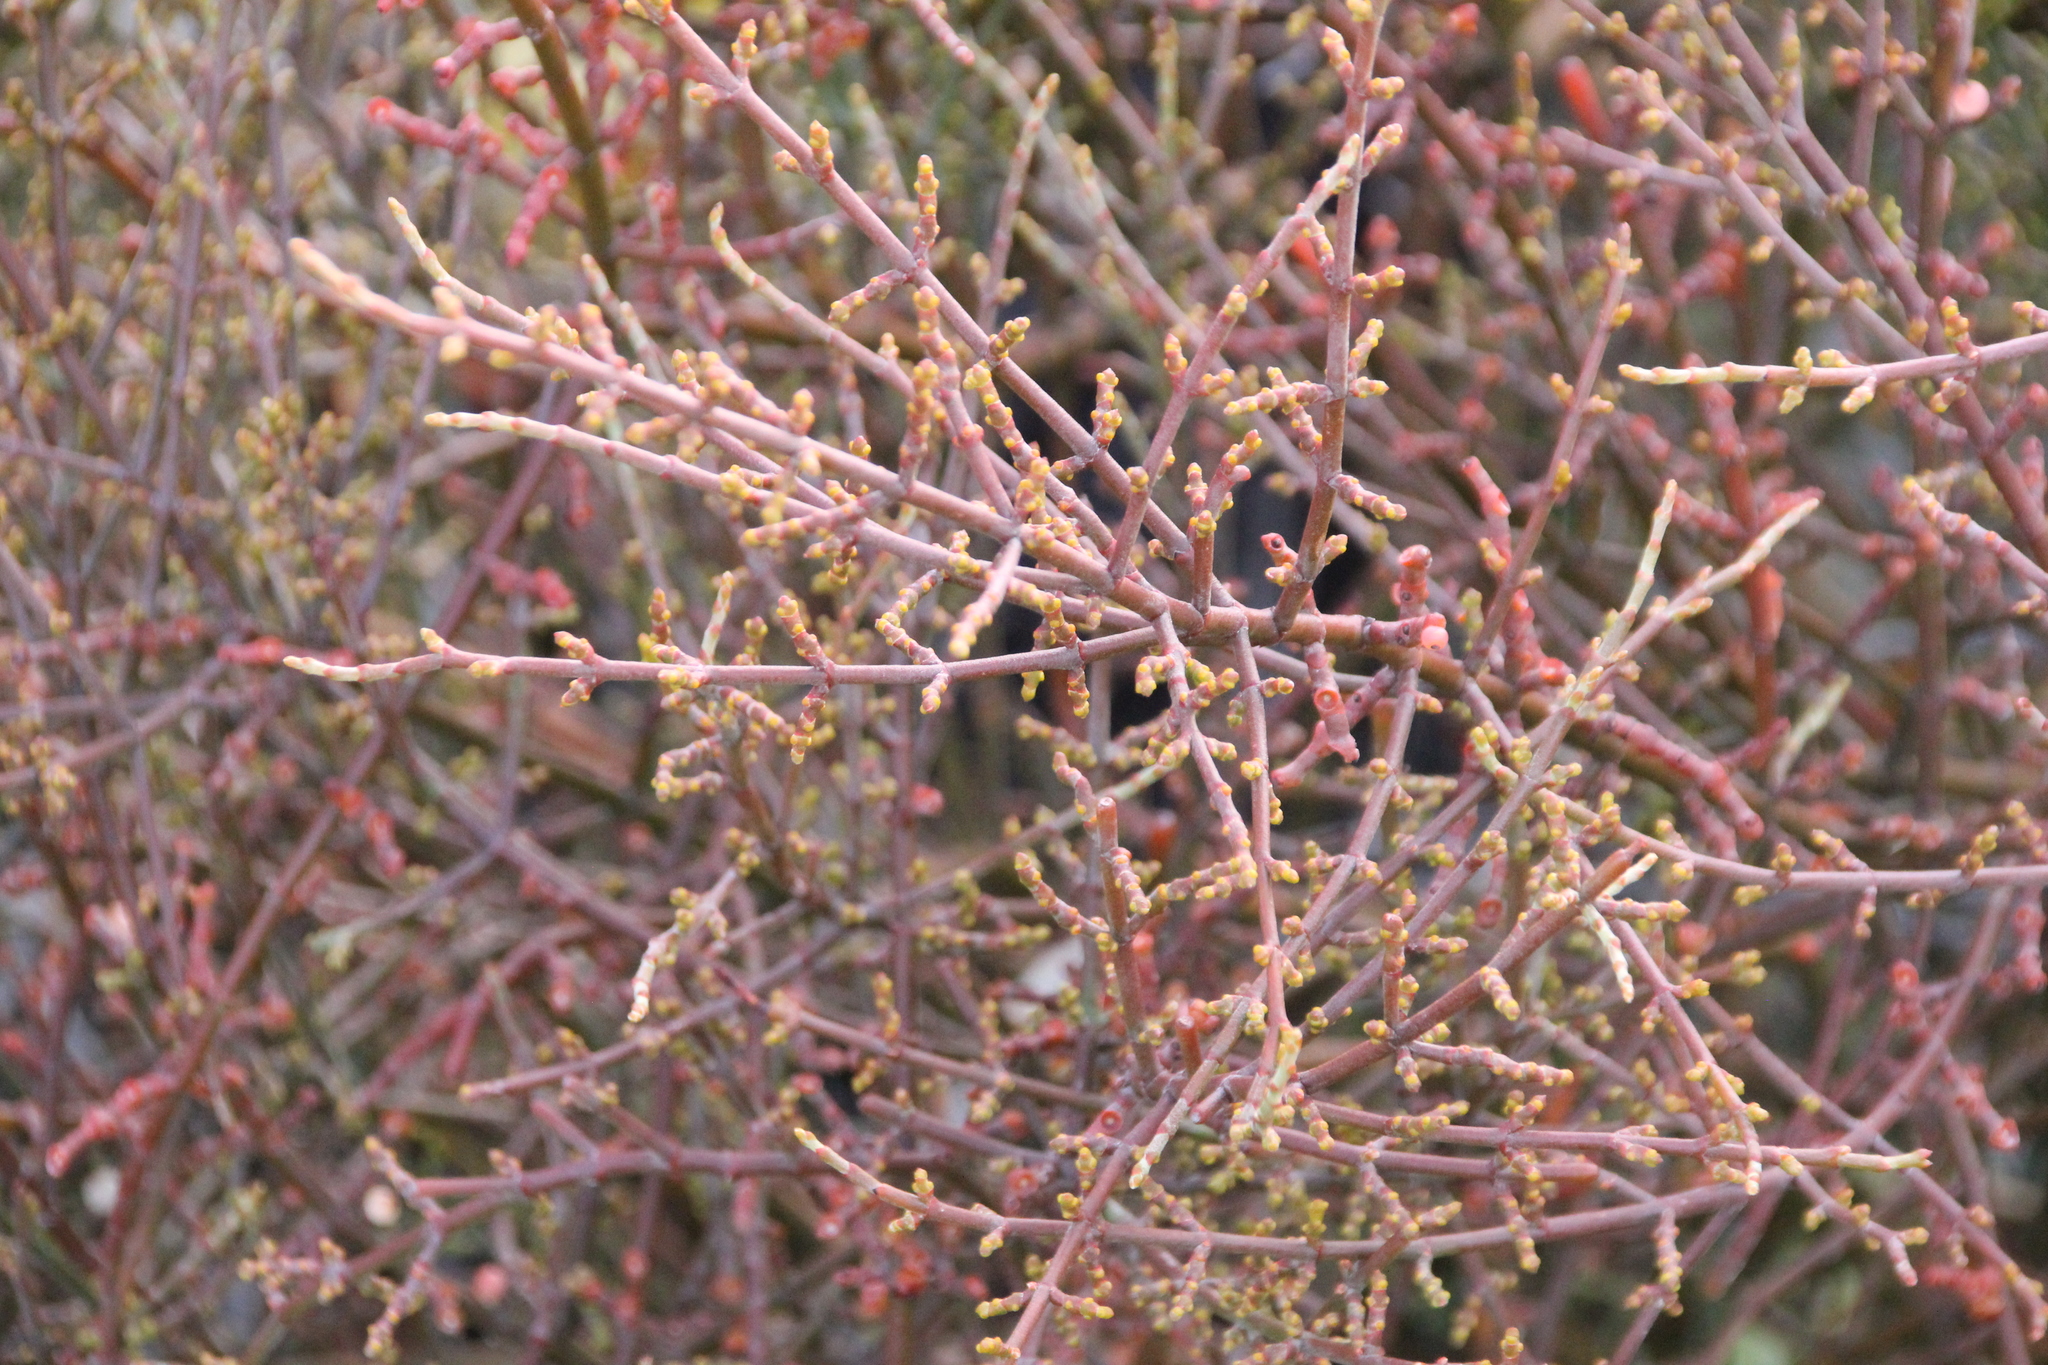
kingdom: Plantae
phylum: Tracheophyta
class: Magnoliopsida
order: Santalales
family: Viscaceae
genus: Phoradendron
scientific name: Phoradendron californicum
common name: Acacia mistletoe
